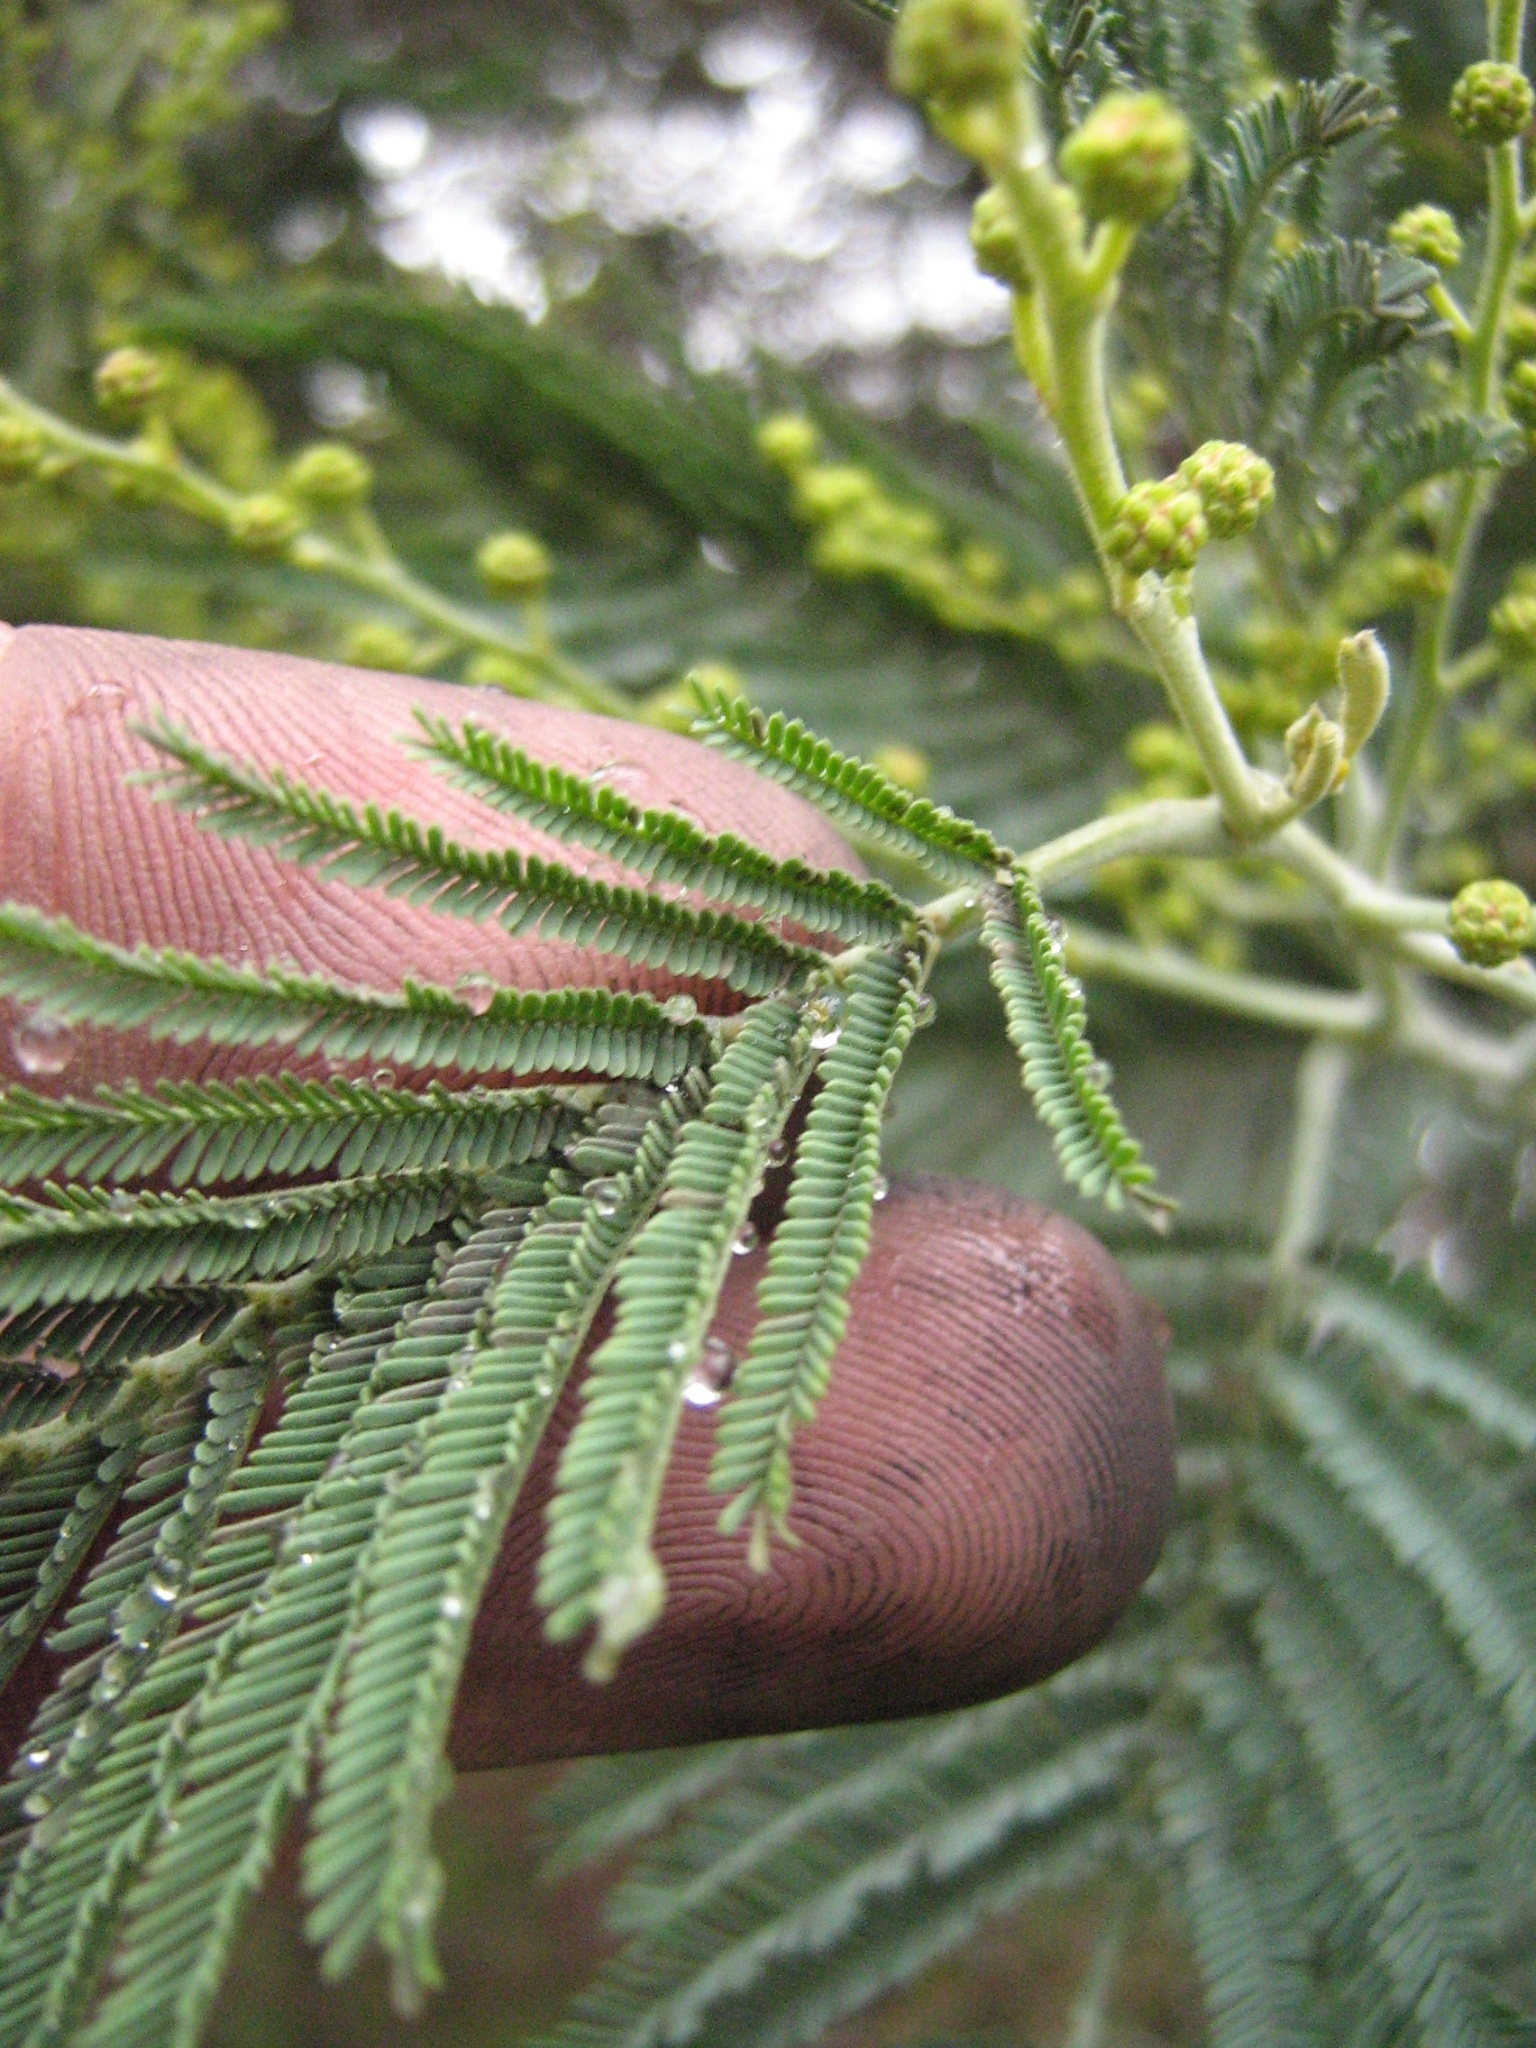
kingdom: Plantae
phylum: Tracheophyta
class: Magnoliopsida
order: Fabales
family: Fabaceae
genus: Acacia
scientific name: Acacia dealbata
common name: Silver wattle
